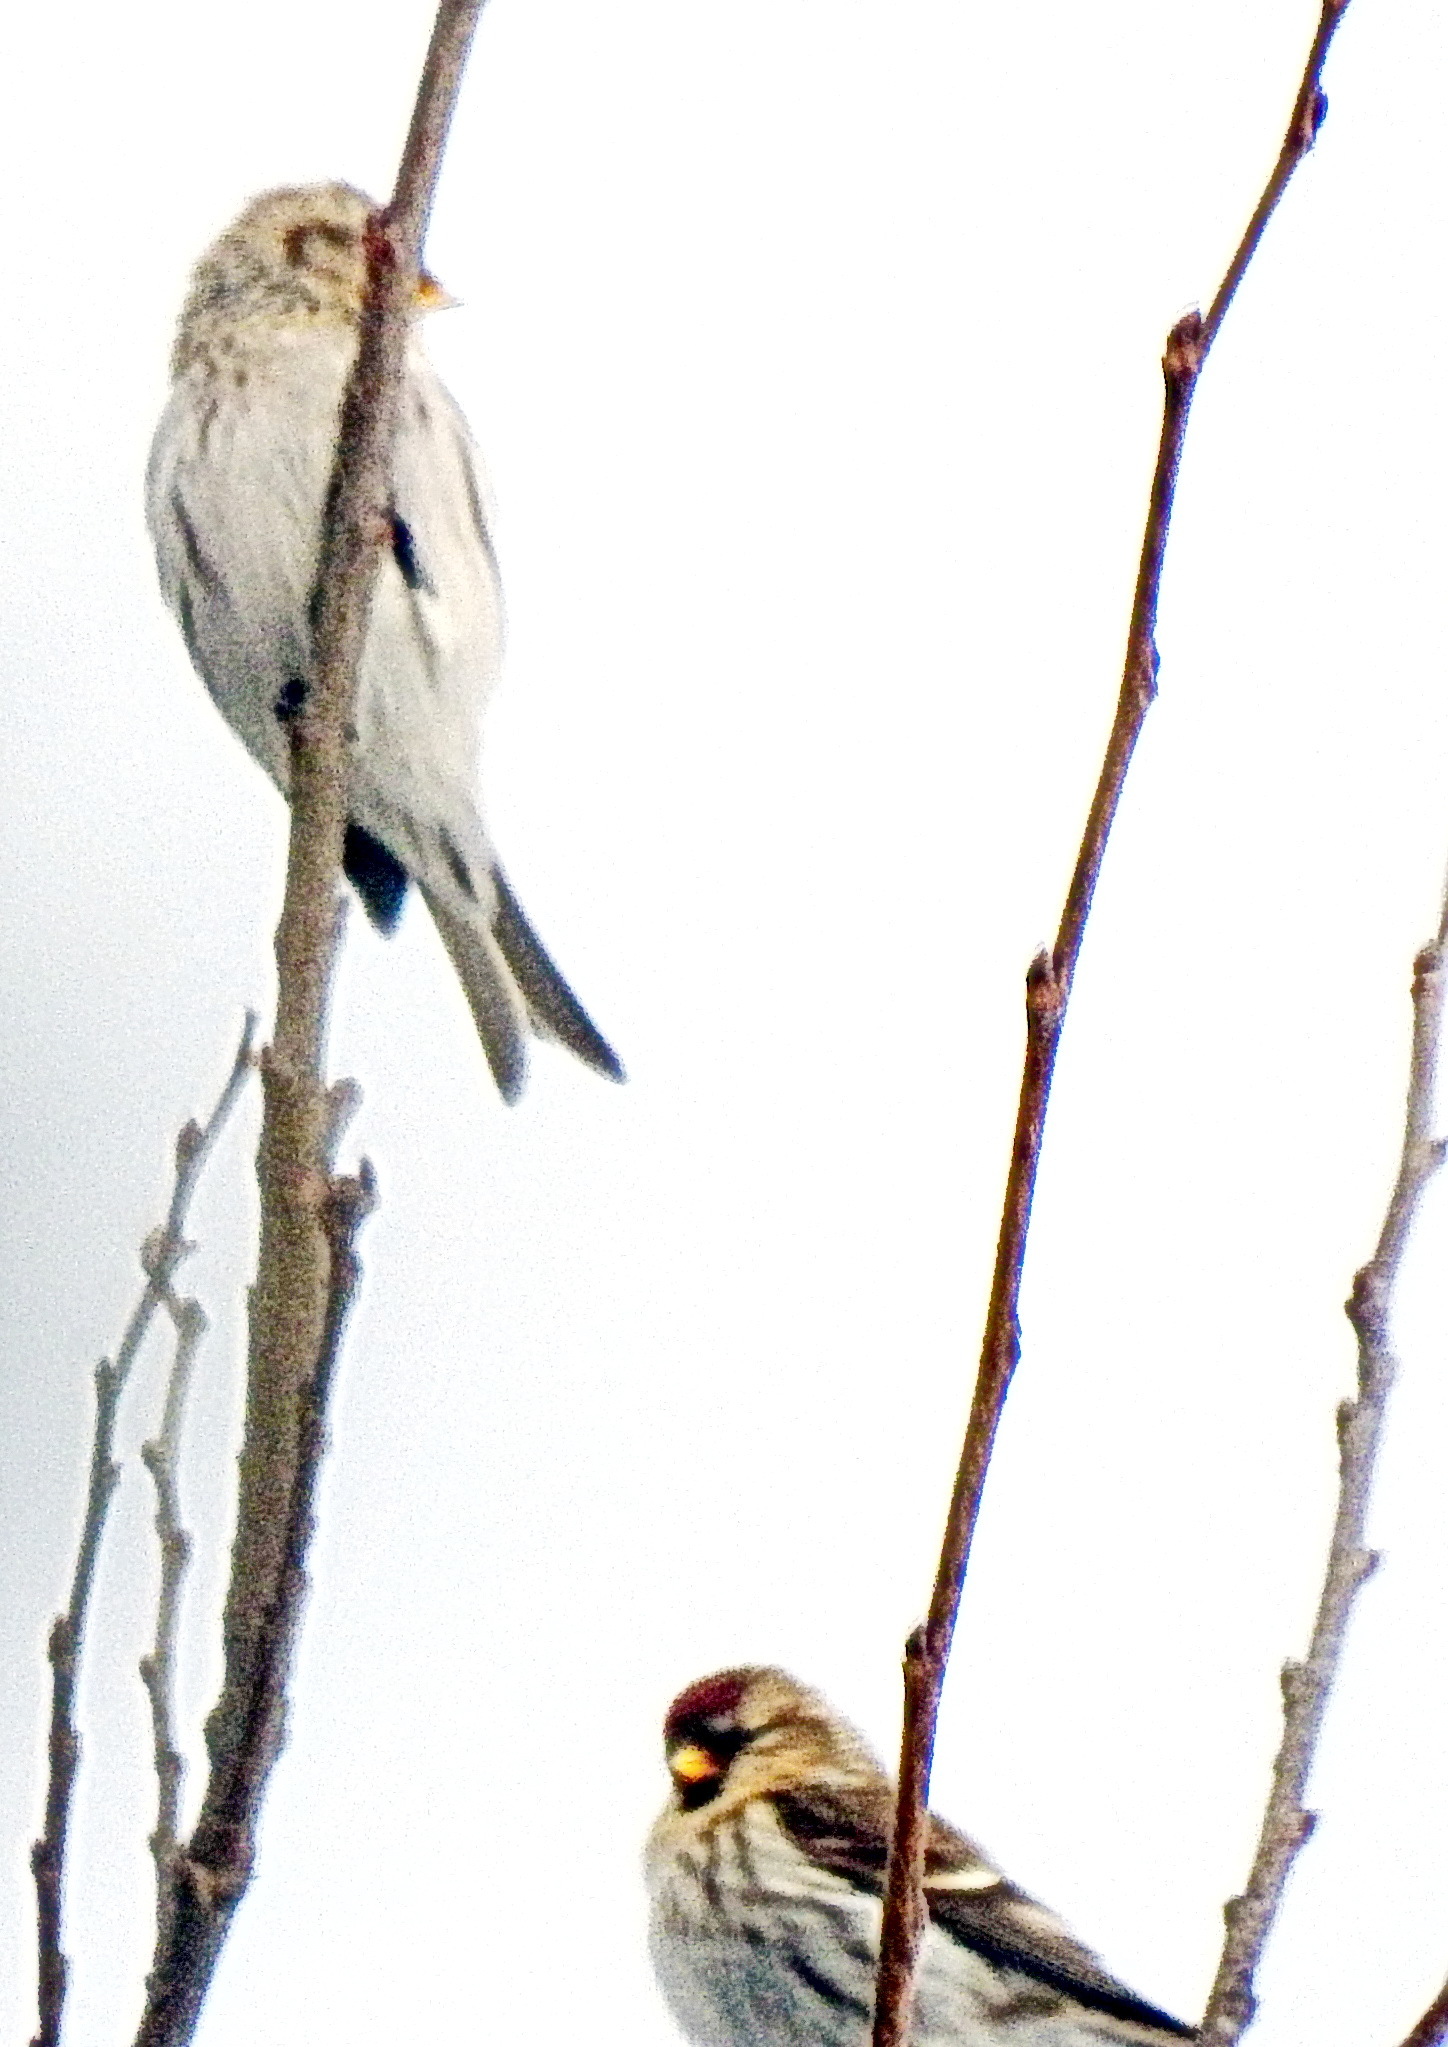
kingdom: Animalia
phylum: Chordata
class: Aves
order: Passeriformes
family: Fringillidae
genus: Acanthis
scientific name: Acanthis flammea
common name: Common redpoll
